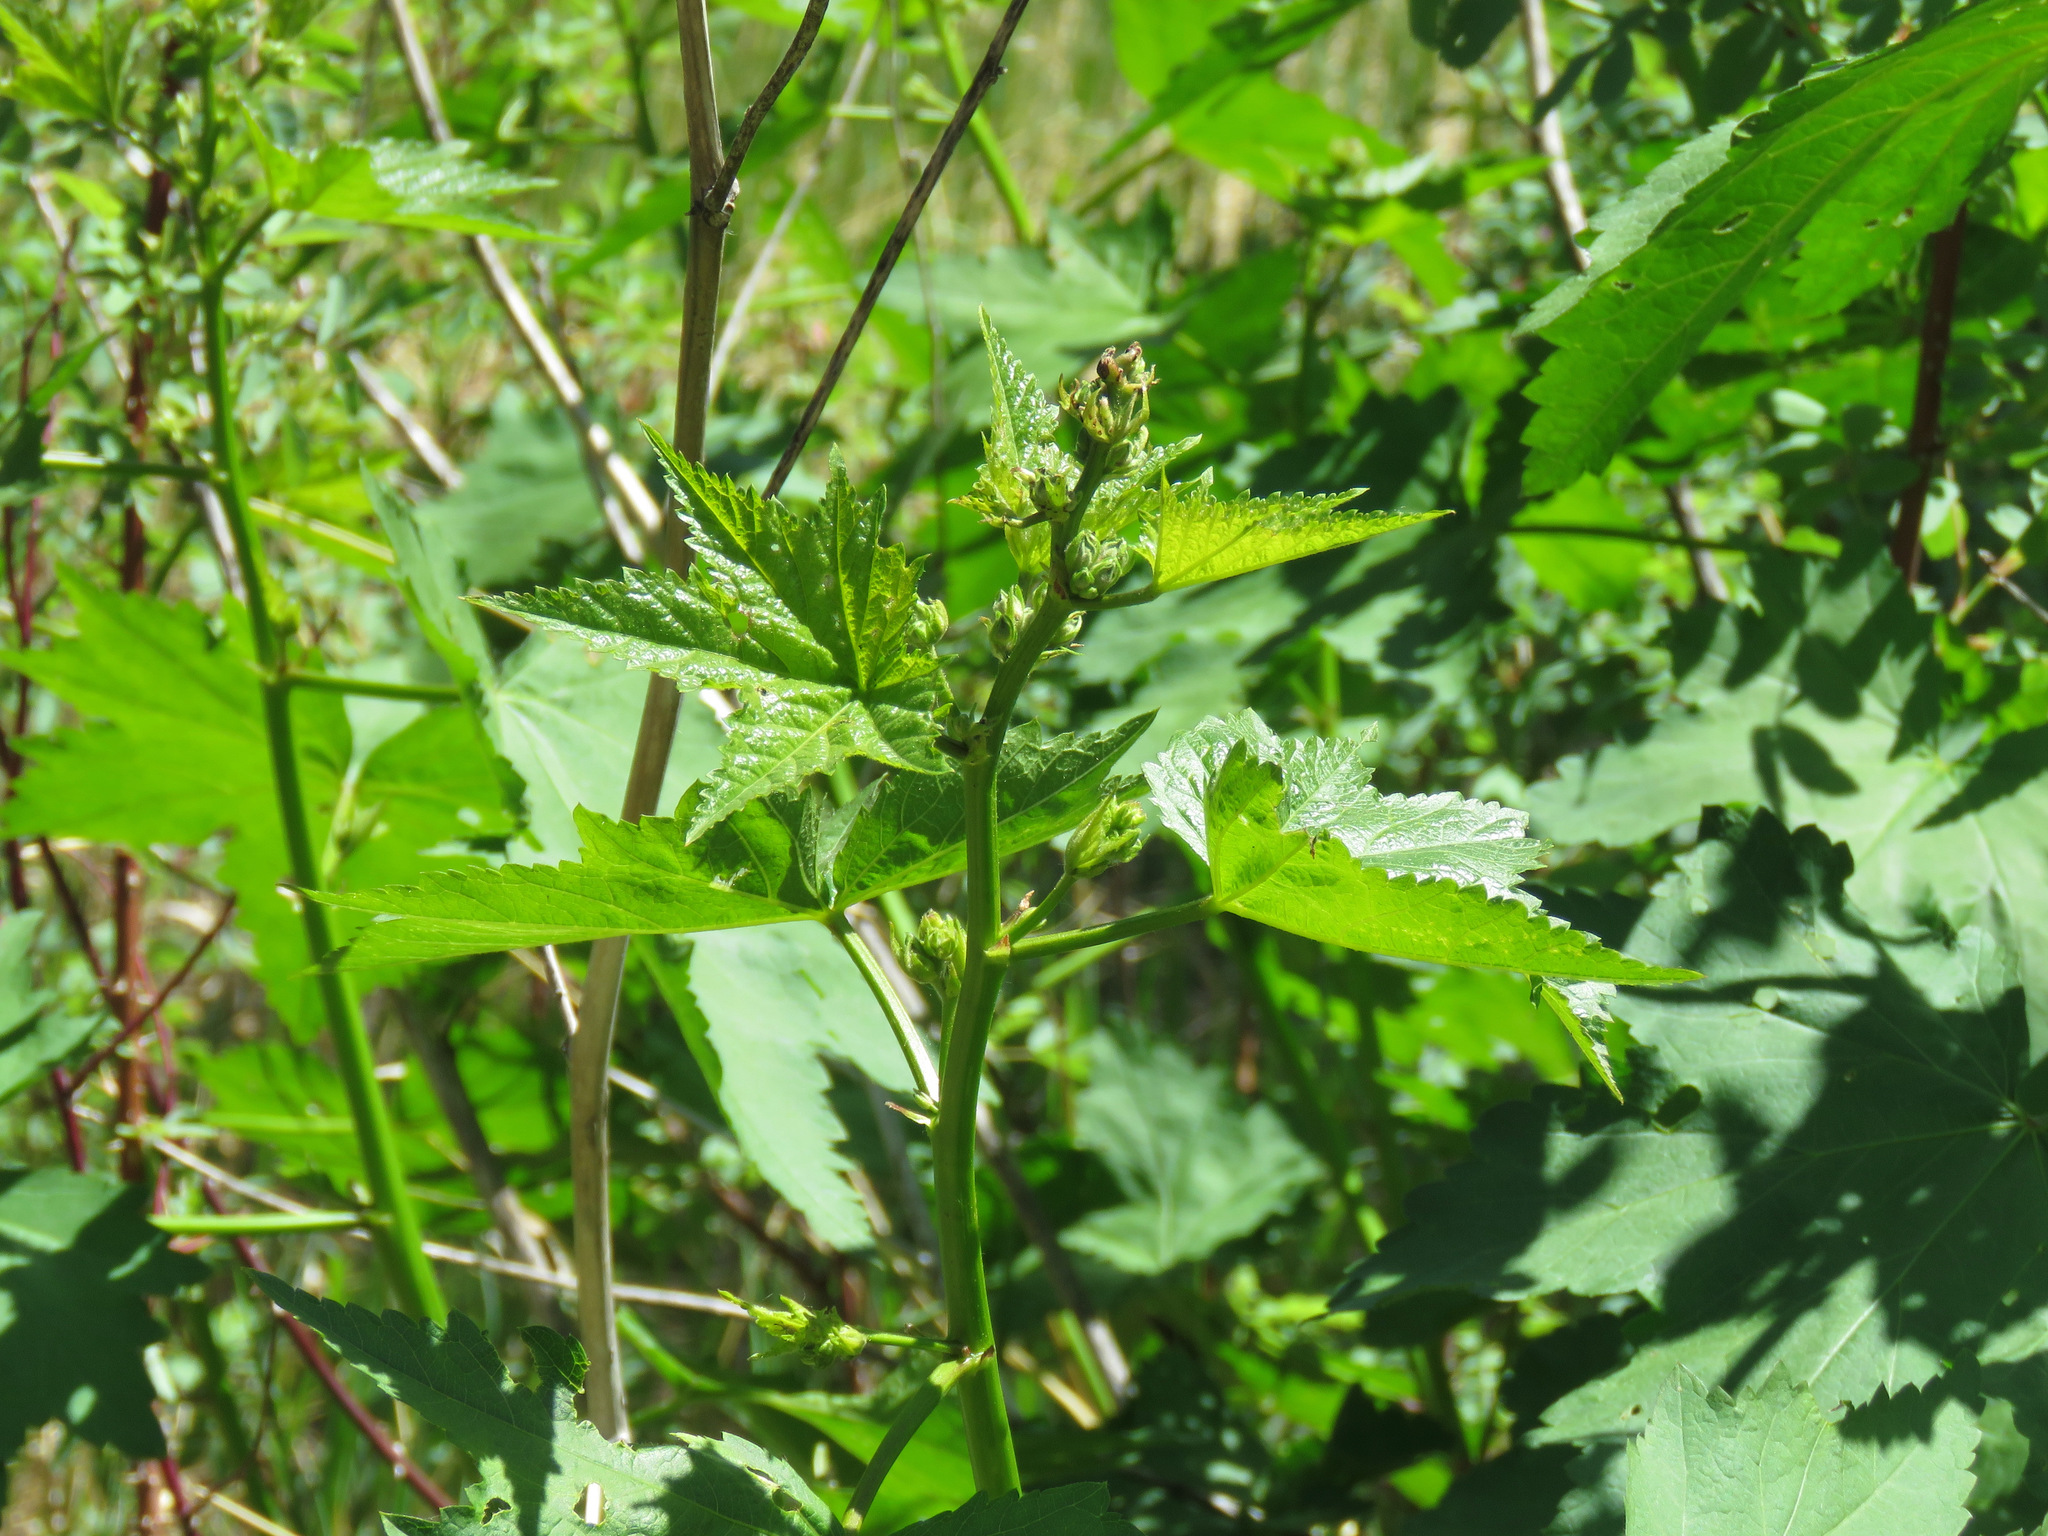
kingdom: Plantae
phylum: Tracheophyta
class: Magnoliopsida
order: Malvales
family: Malvaceae
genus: Iliamna
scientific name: Iliamna rivularis
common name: Wild hollyhock
